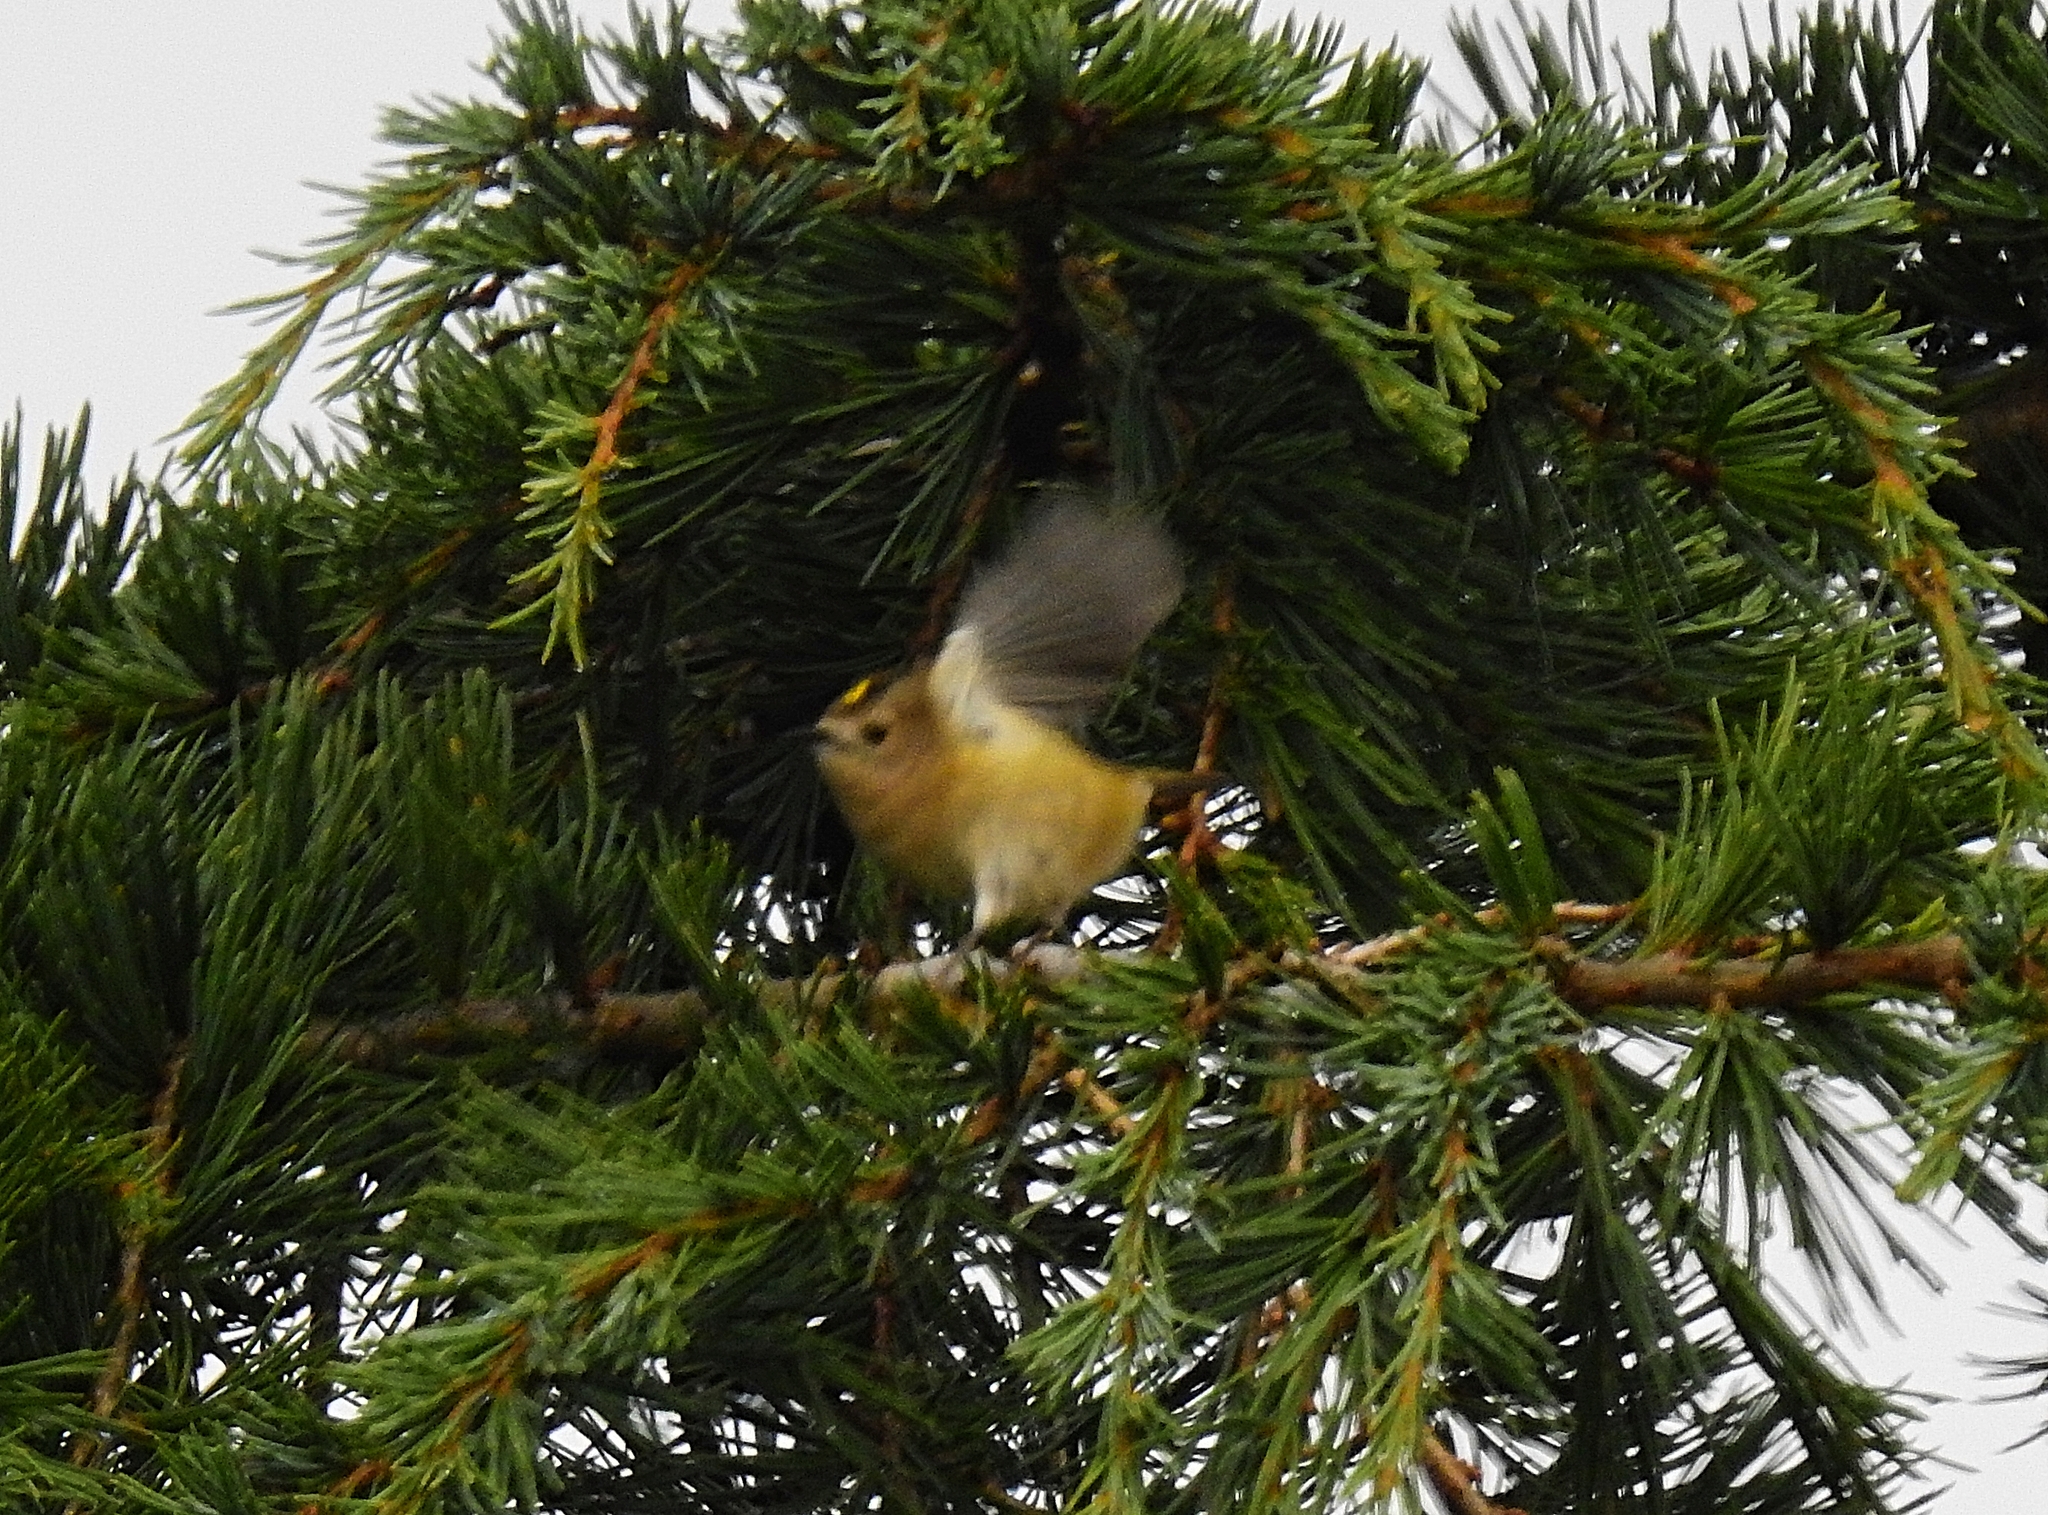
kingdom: Animalia
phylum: Chordata
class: Aves
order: Passeriformes
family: Regulidae
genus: Regulus
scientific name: Regulus regulus
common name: Goldcrest
